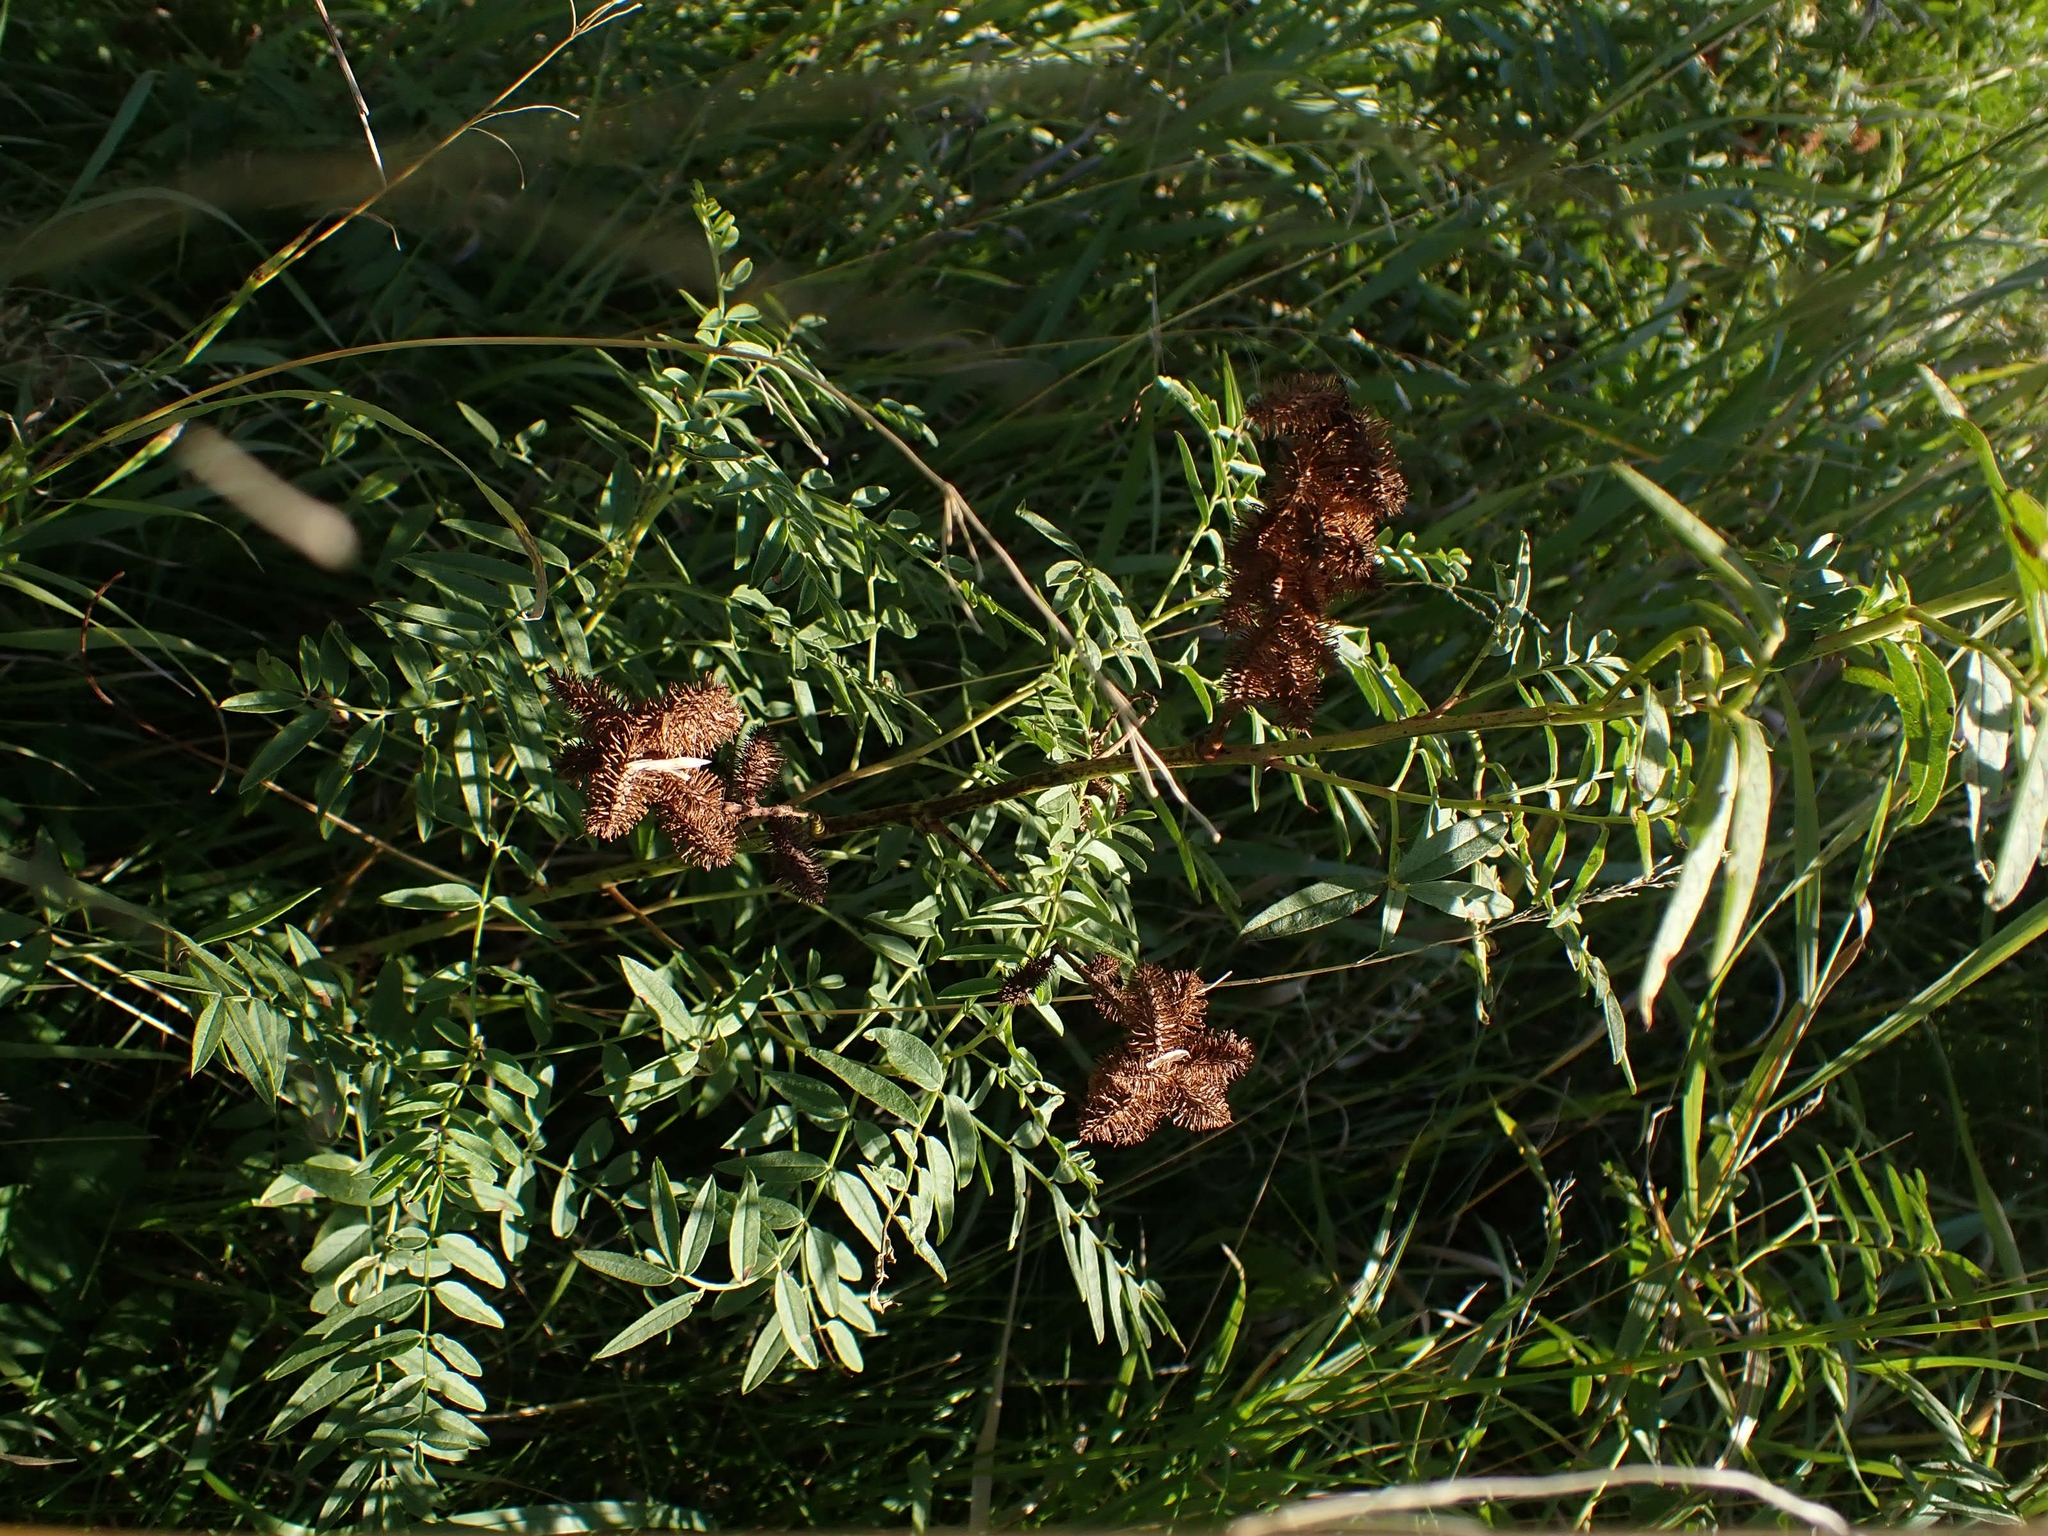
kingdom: Plantae
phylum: Tracheophyta
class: Magnoliopsida
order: Fabales
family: Fabaceae
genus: Glycyrrhiza
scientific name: Glycyrrhiza lepidota
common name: American liquorice
